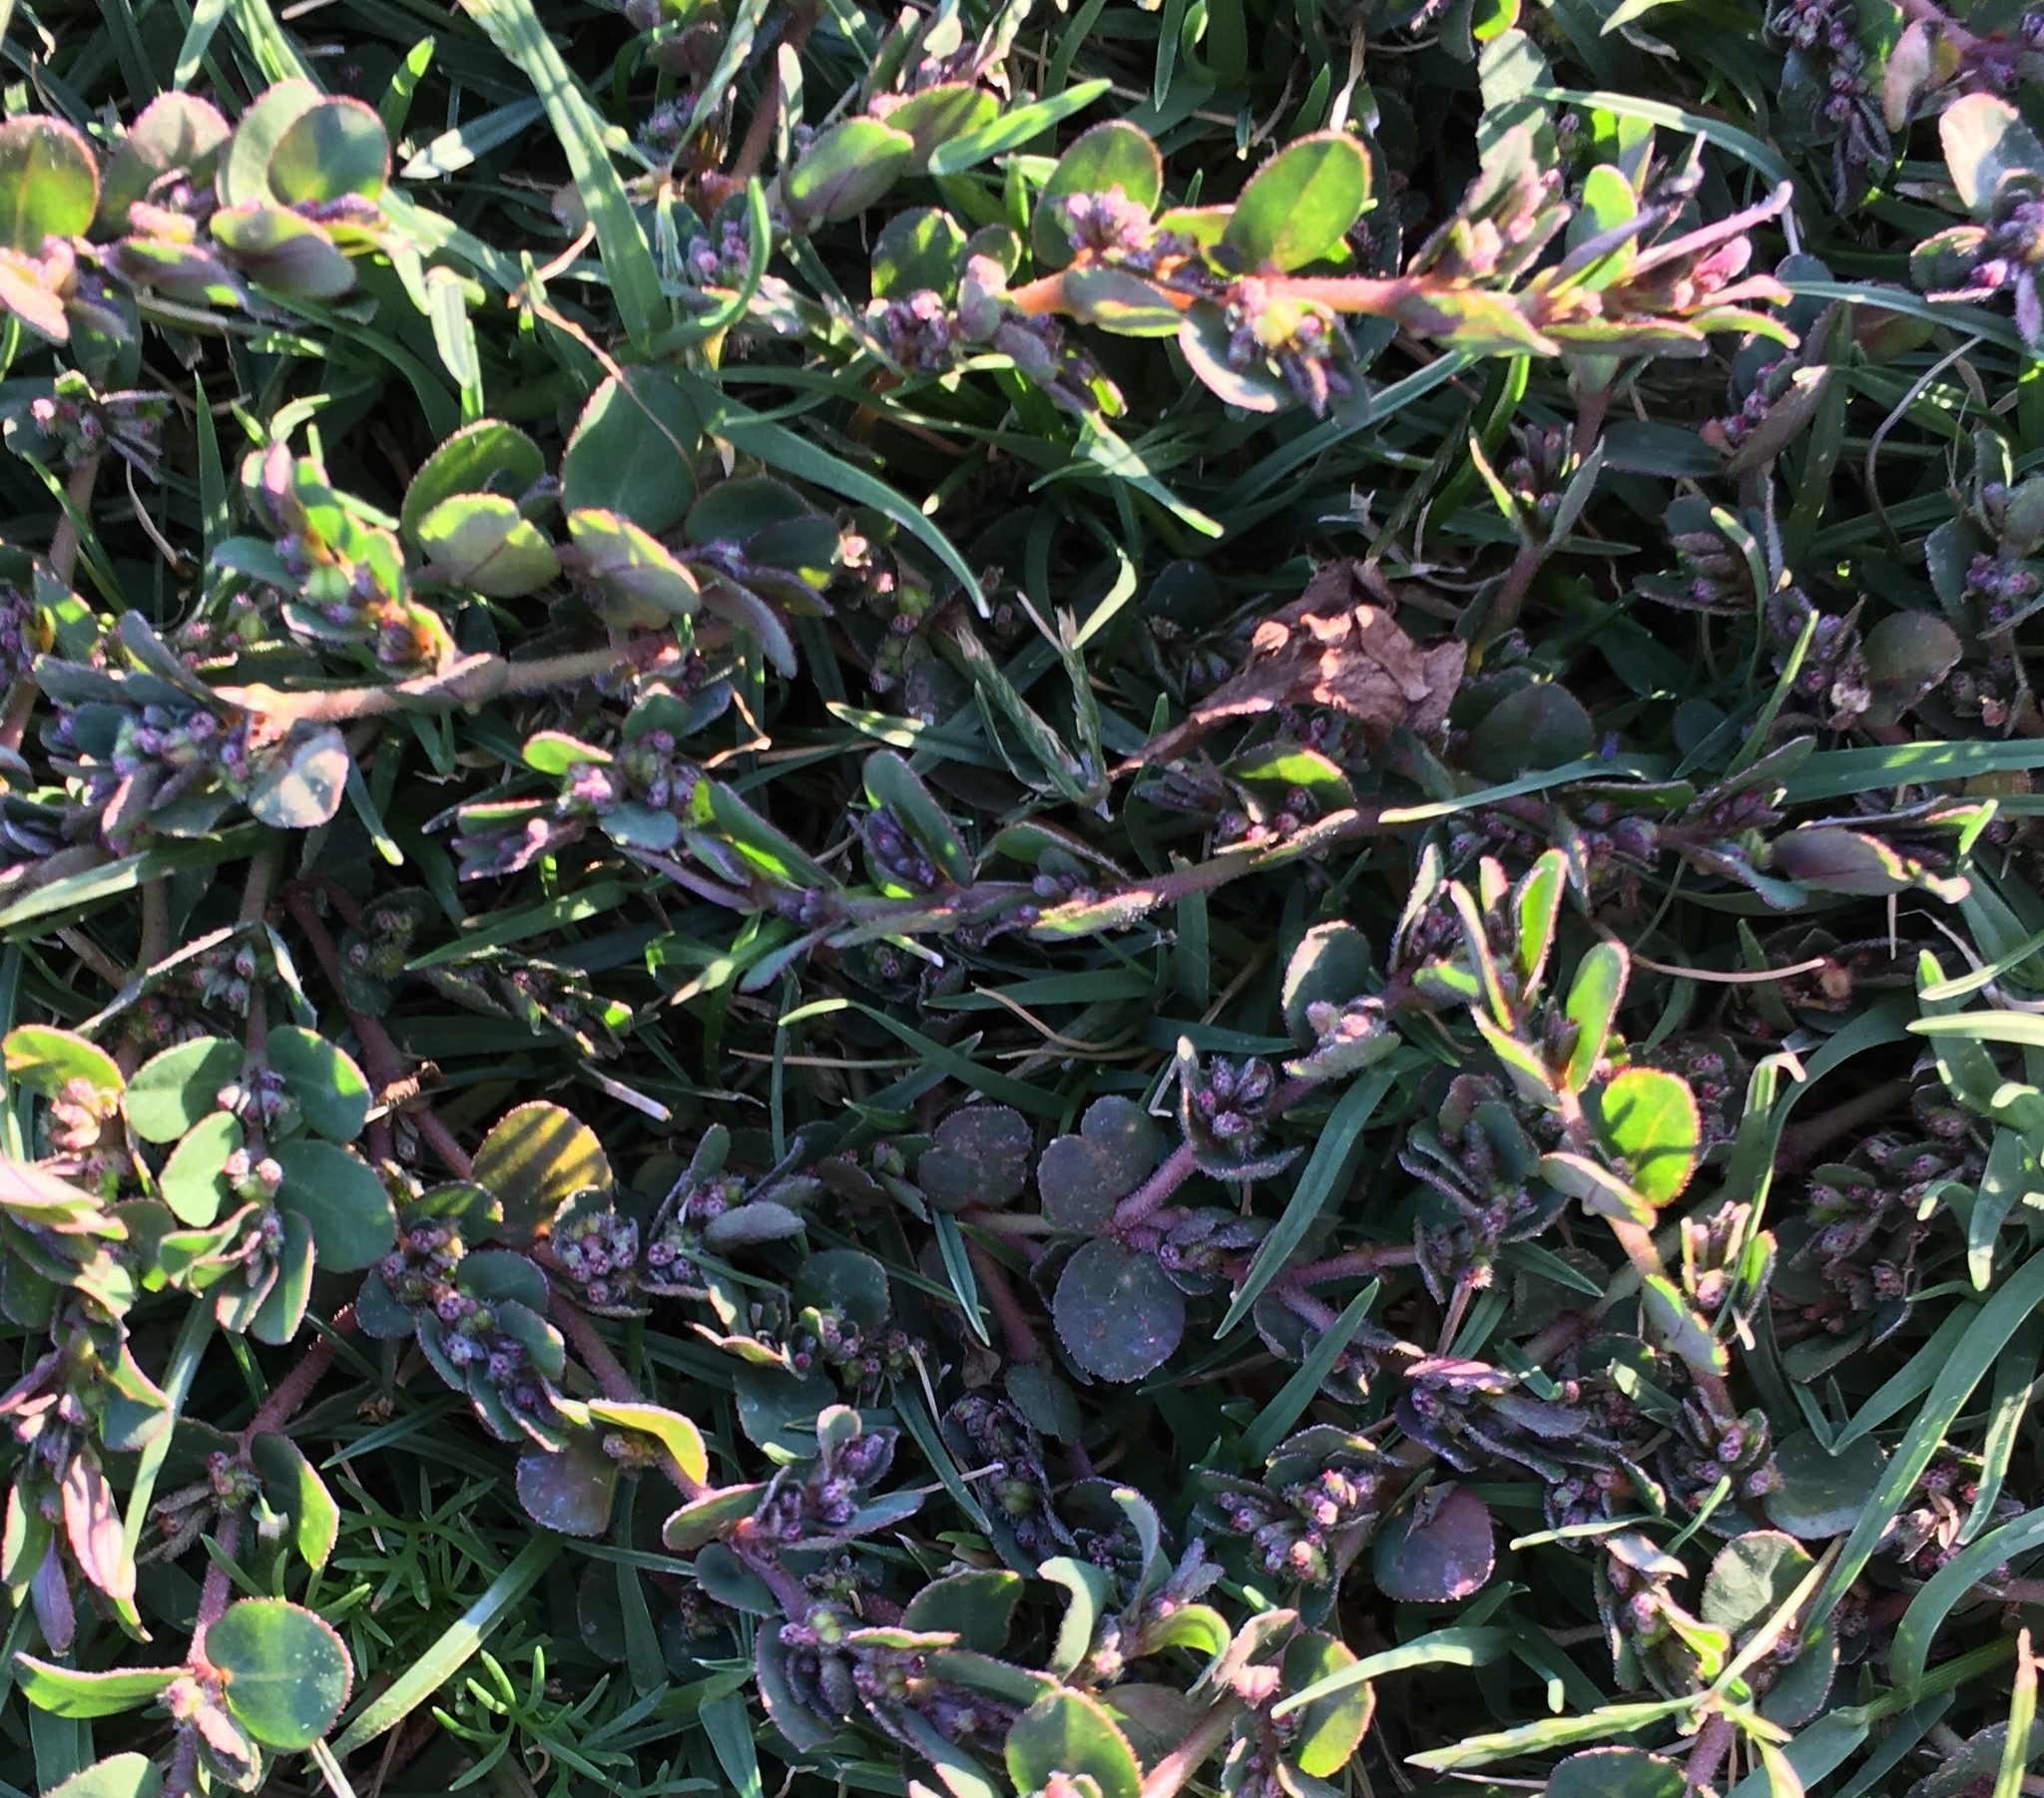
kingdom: Plantae
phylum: Tracheophyta
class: Magnoliopsida
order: Malpighiales
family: Euphorbiaceae
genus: Euphorbia
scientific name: Euphorbia prostrata
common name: Prostrate sandmat
